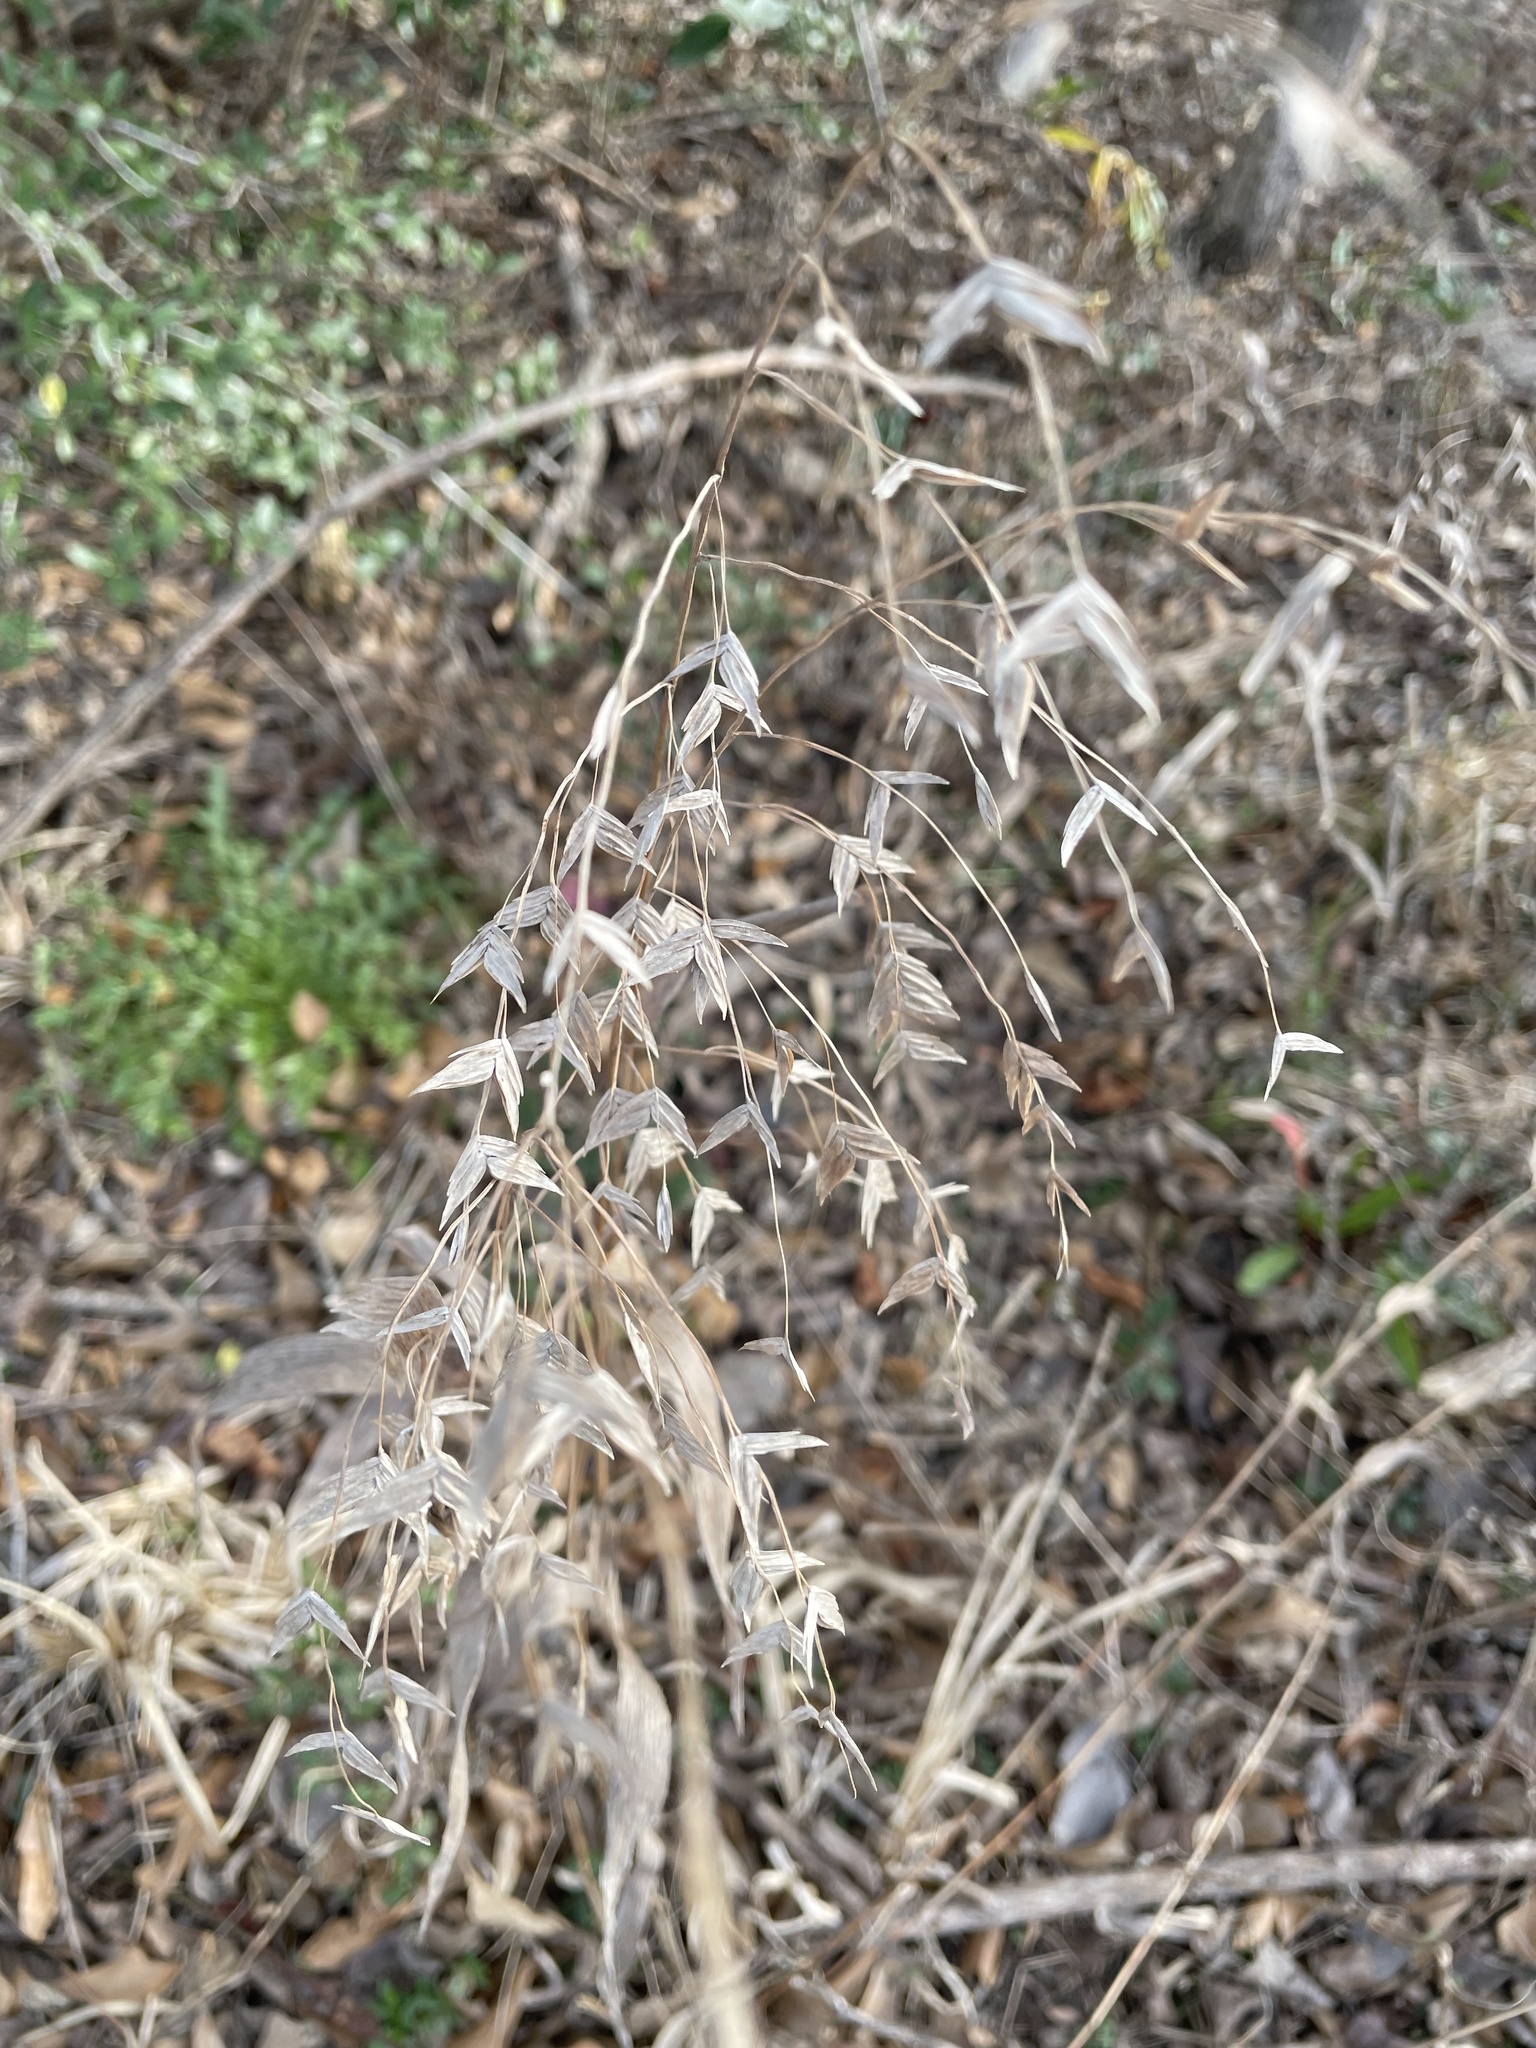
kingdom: Plantae
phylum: Tracheophyta
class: Liliopsida
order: Poales
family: Poaceae
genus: Chasmanthium
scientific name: Chasmanthium latifolium
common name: Broad-leaved chasmanthium
